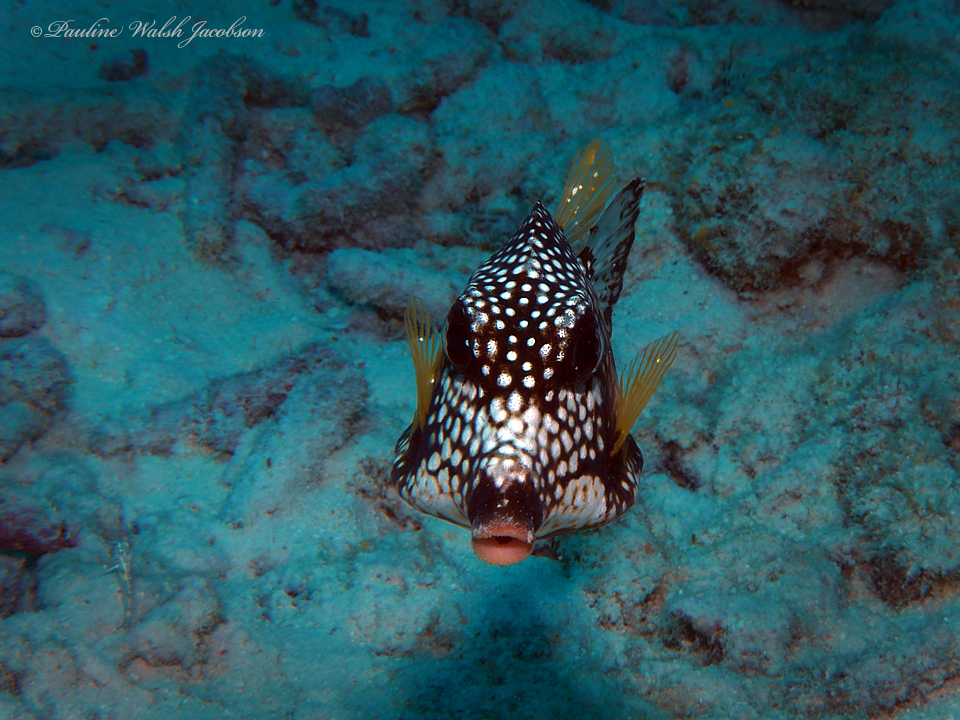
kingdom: Animalia
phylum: Chordata
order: Tetraodontiformes
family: Ostraciidae
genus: Lactophrys
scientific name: Lactophrys triqueter
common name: Smooth trunkfish
